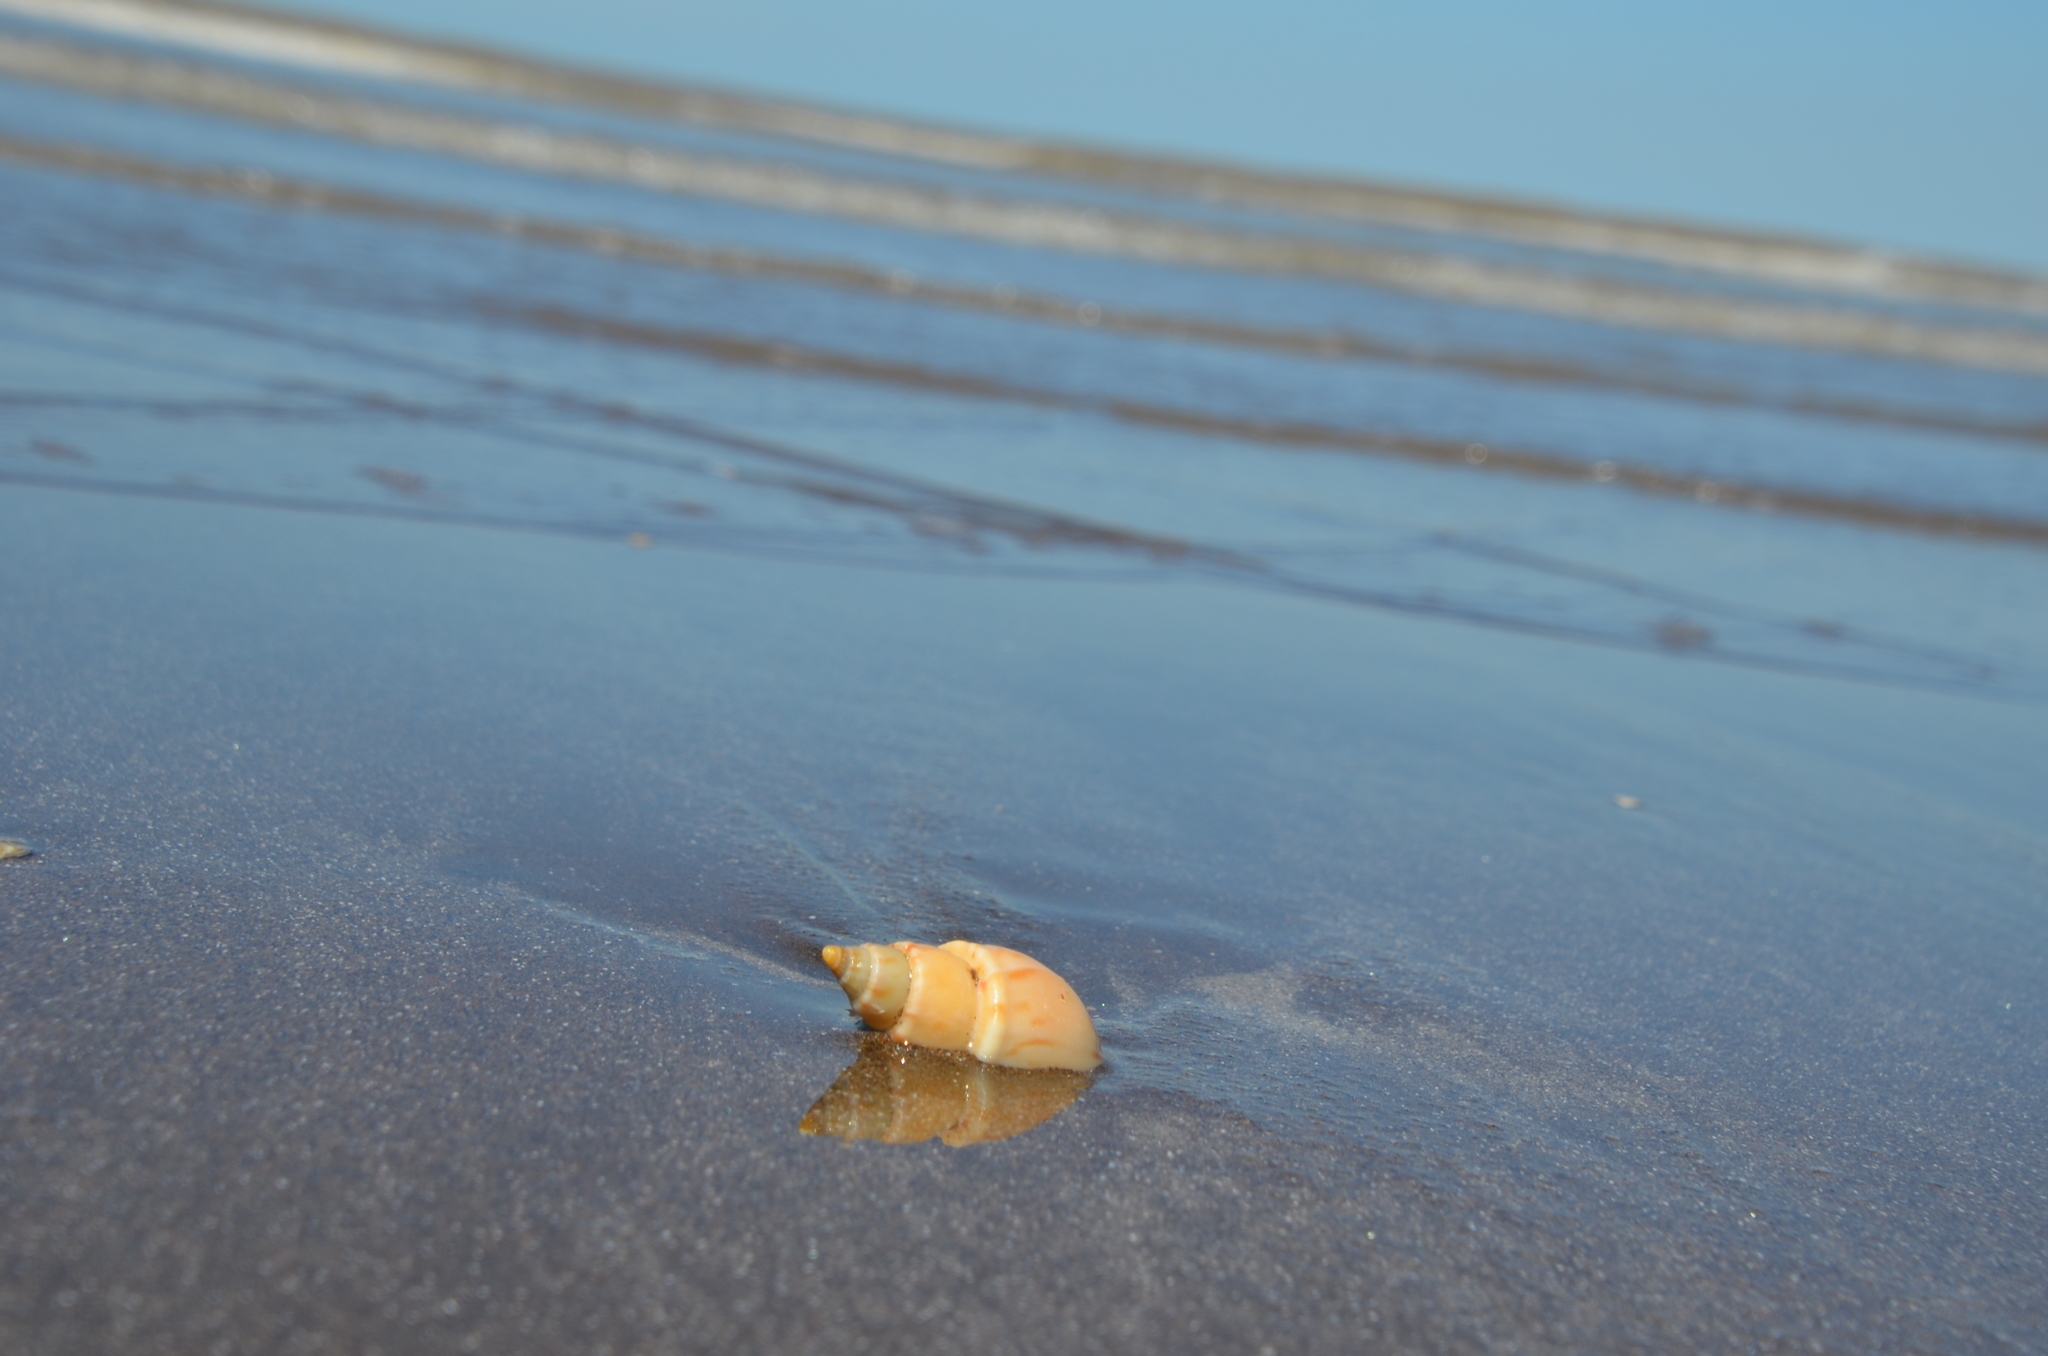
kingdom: Animalia
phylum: Mollusca
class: Gastropoda
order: Neogastropoda
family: Buccinanopsidae
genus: Buccinanops
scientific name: Buccinanops cochlidium
